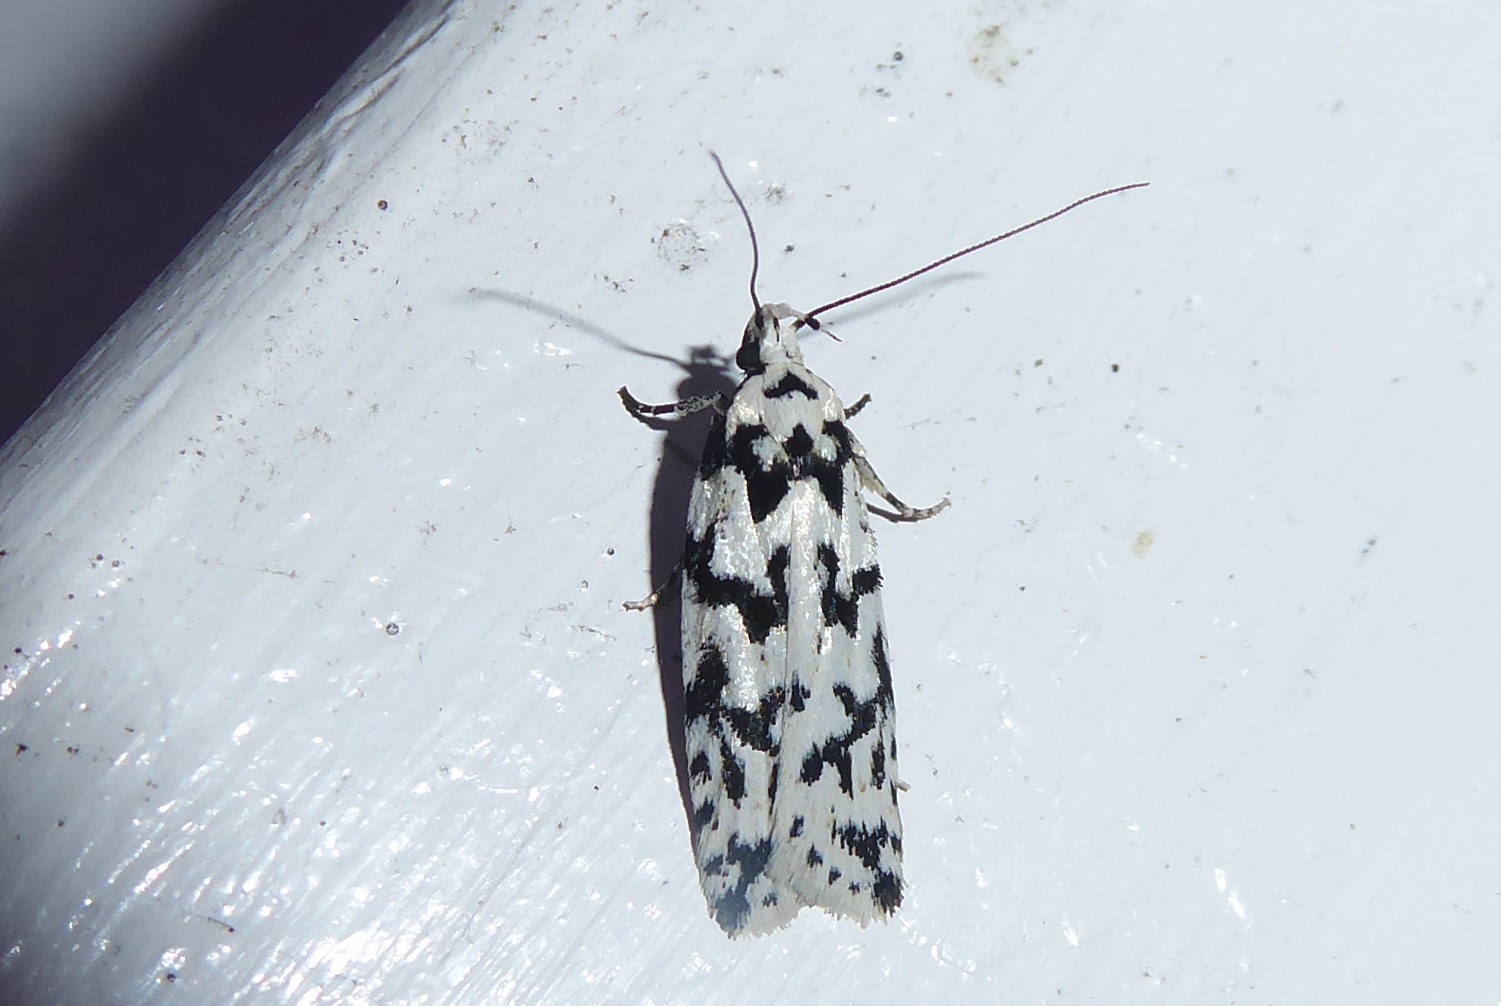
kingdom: Animalia
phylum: Arthropoda
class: Insecta
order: Lepidoptera
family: Oecophoridae
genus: Izatha
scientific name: Izatha katadiktya
